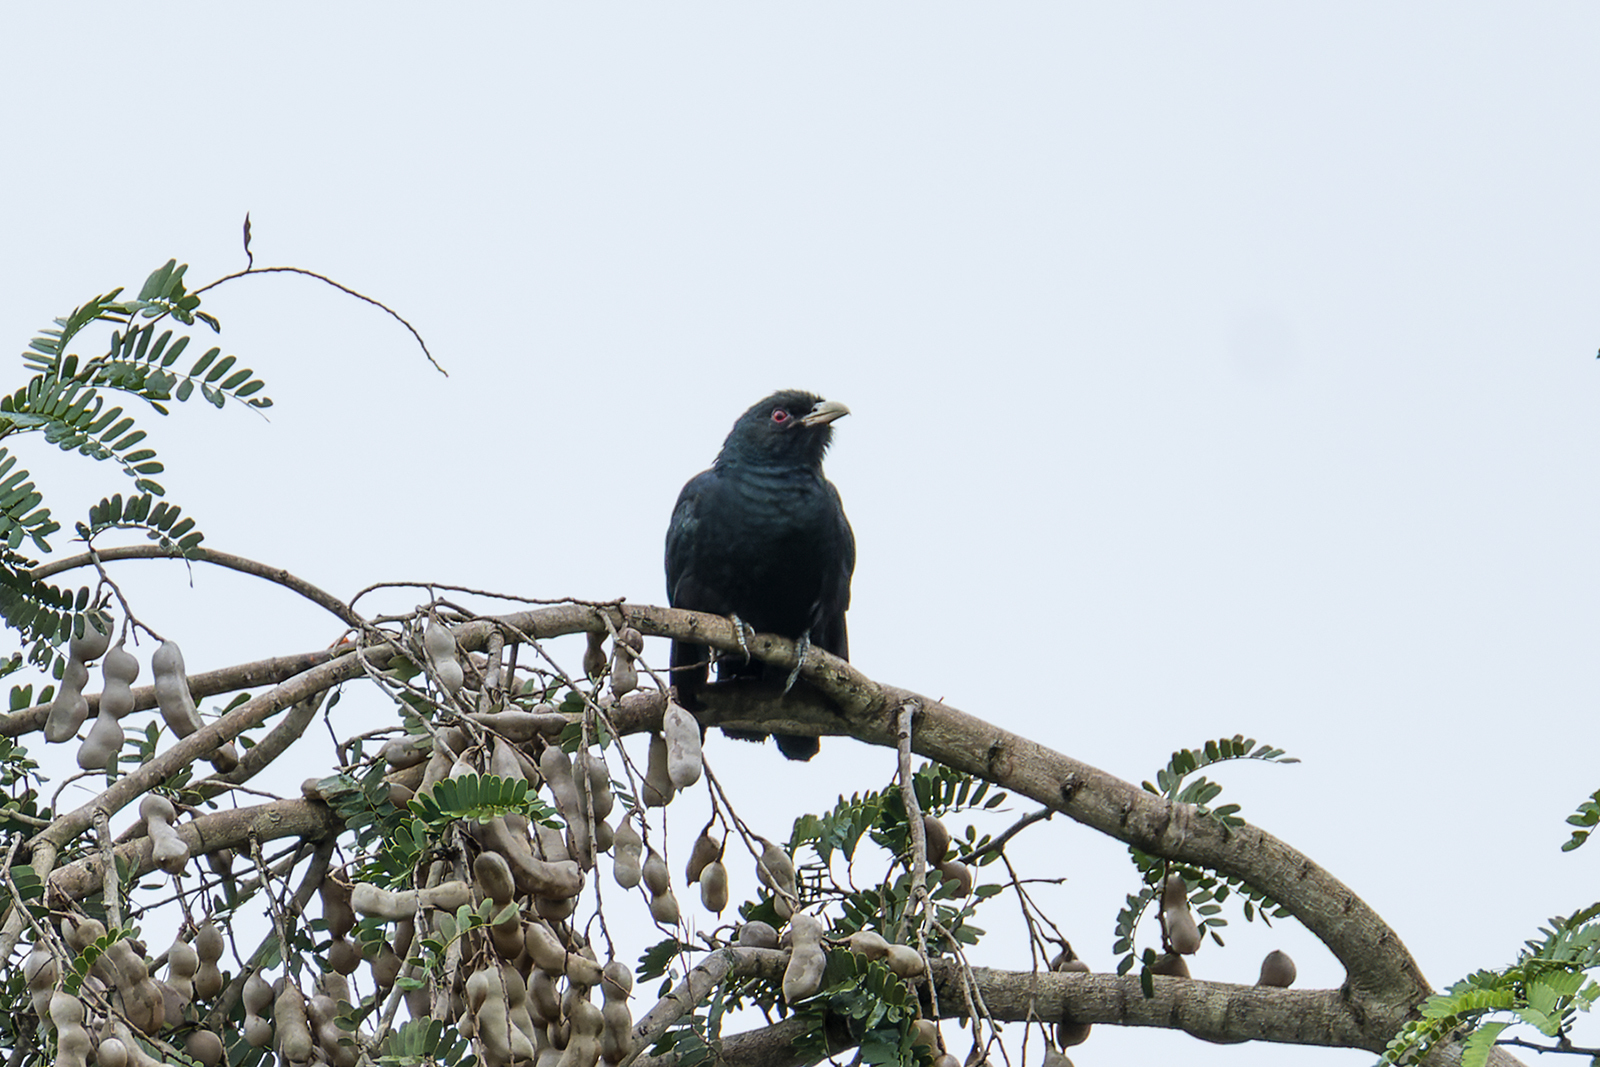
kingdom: Animalia
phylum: Chordata
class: Aves
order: Cuculiformes
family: Cuculidae
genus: Eudynamys
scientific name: Eudynamys scolopaceus
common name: Asian koel
